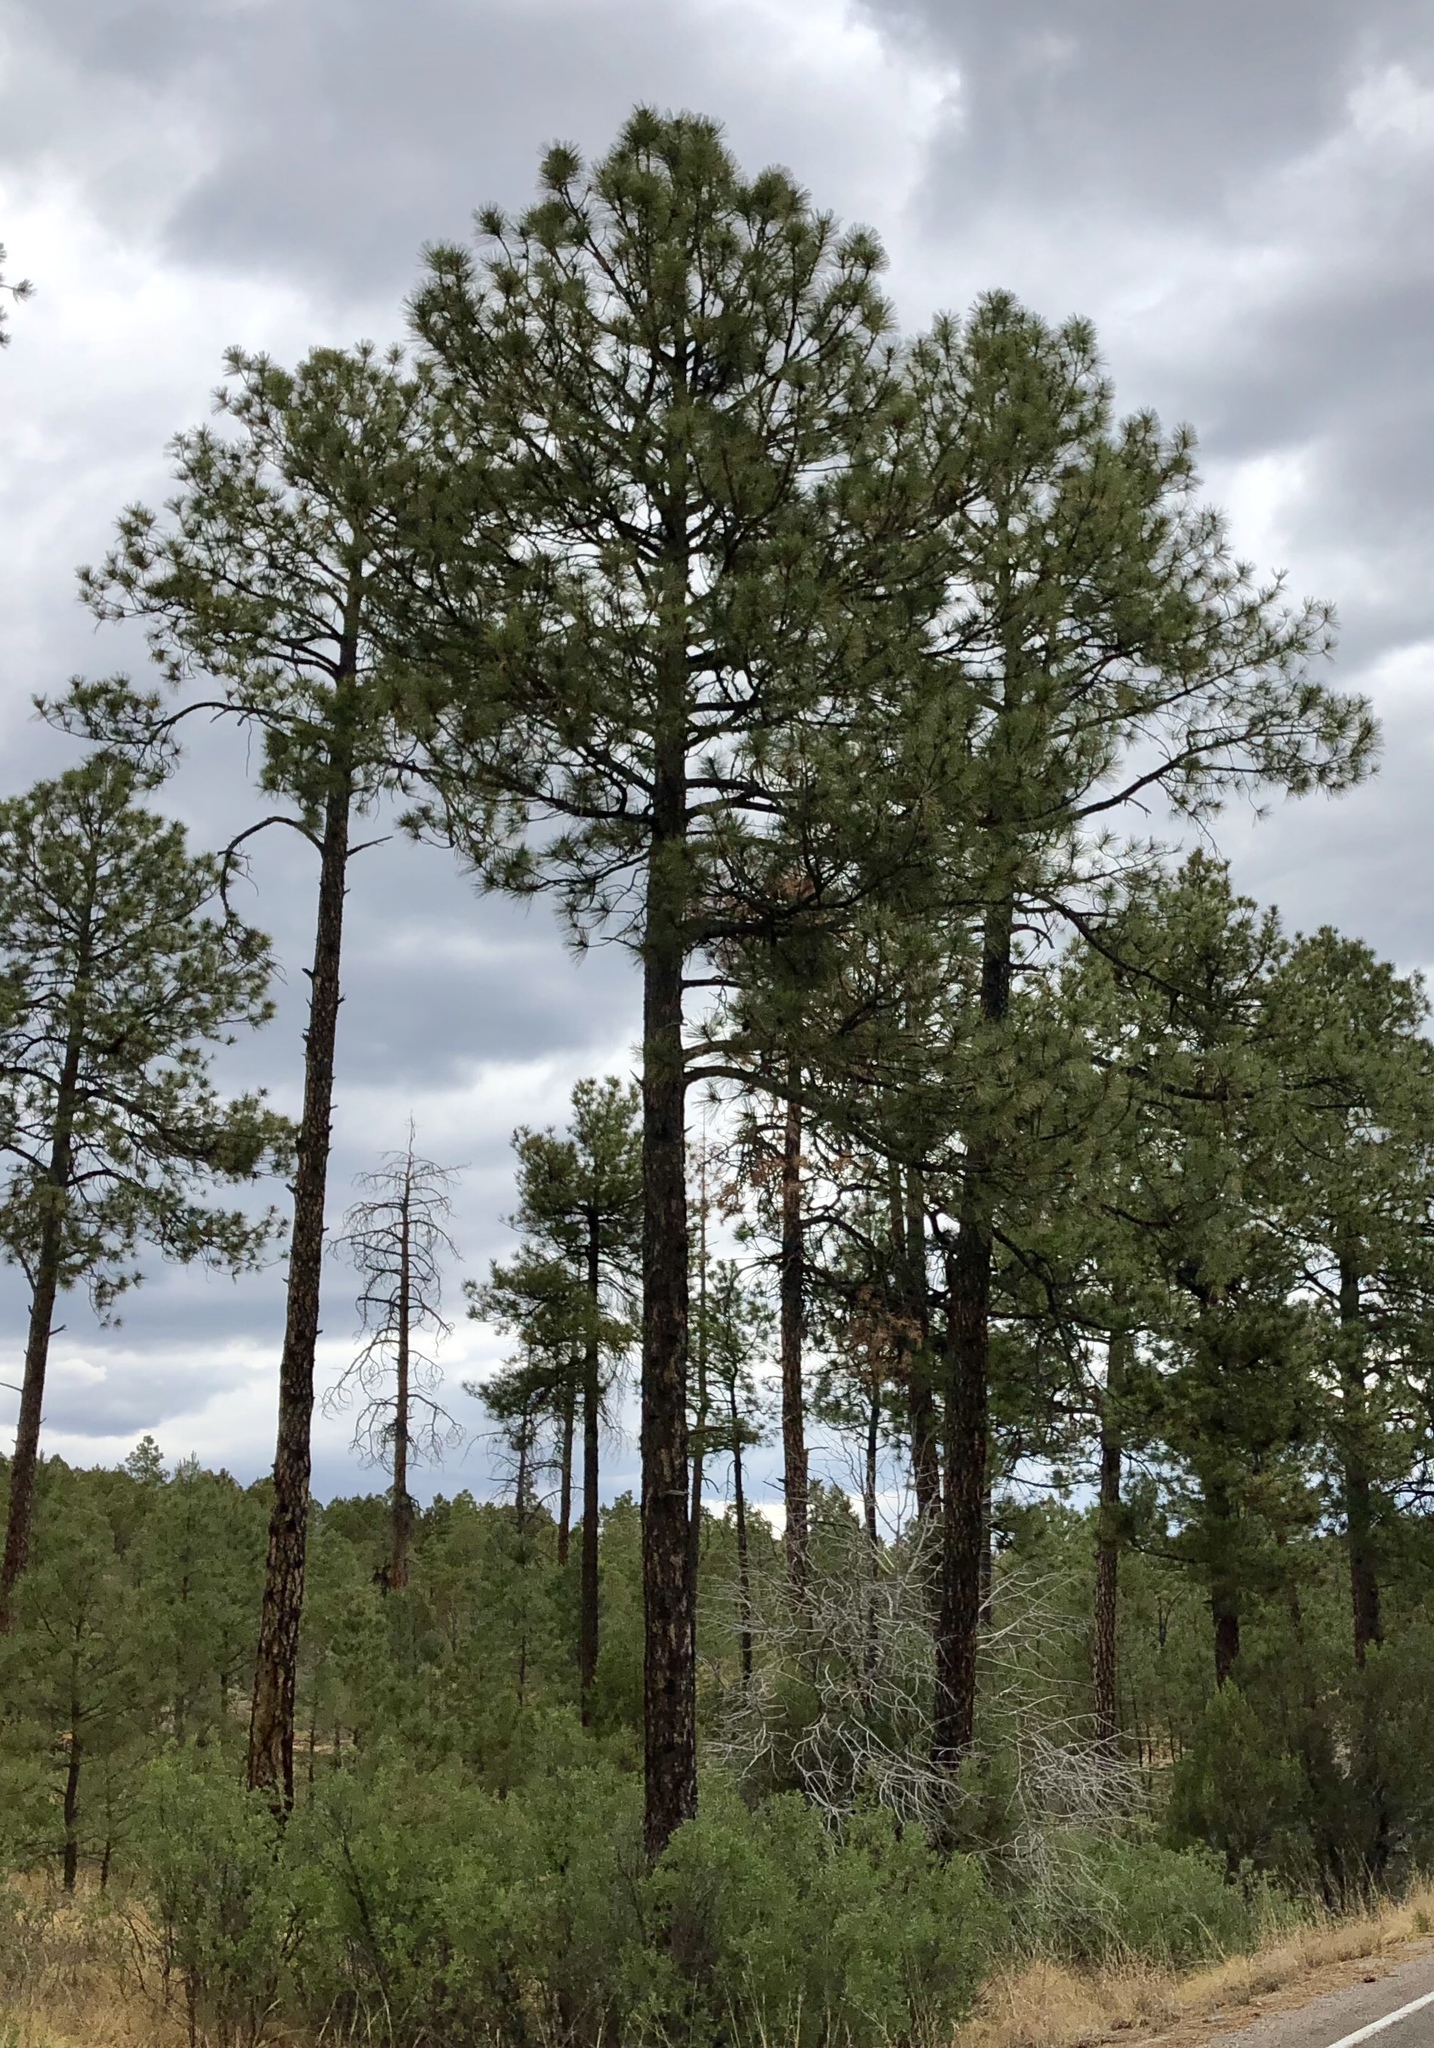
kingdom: Plantae
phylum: Tracheophyta
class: Pinopsida
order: Pinales
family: Pinaceae
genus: Pinus
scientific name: Pinus ponderosa
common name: Western yellow-pine
